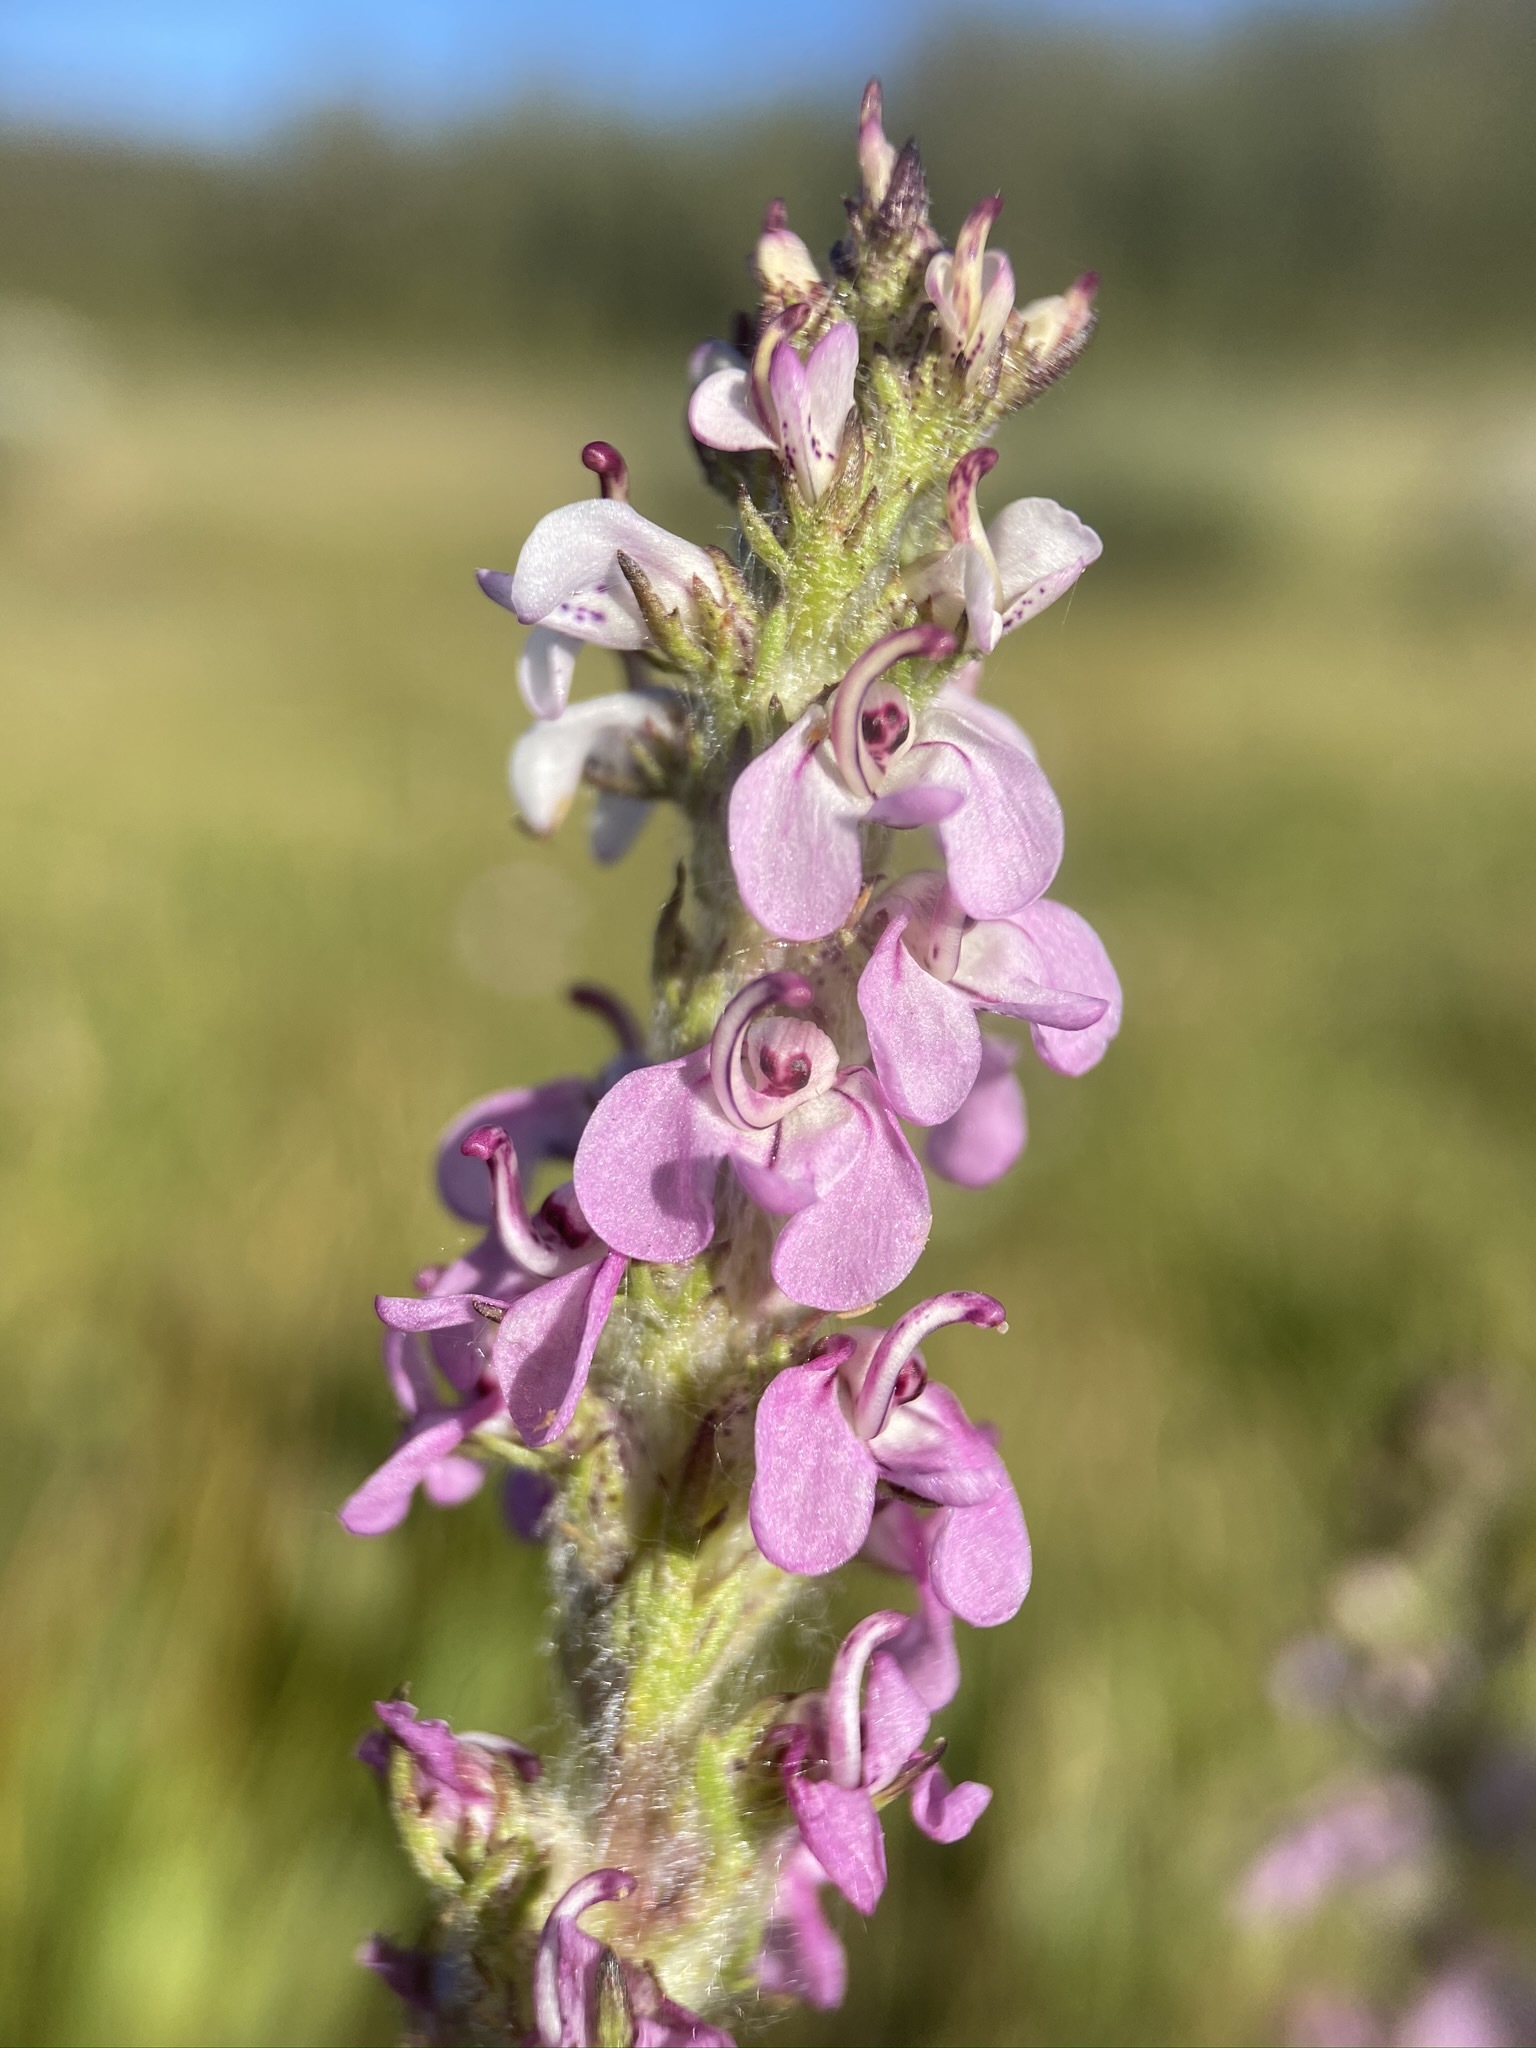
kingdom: Plantae
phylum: Tracheophyta
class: Magnoliopsida
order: Lamiales
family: Orobanchaceae
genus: Pedicularis
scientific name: Pedicularis attollens
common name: Slender pedicularis
